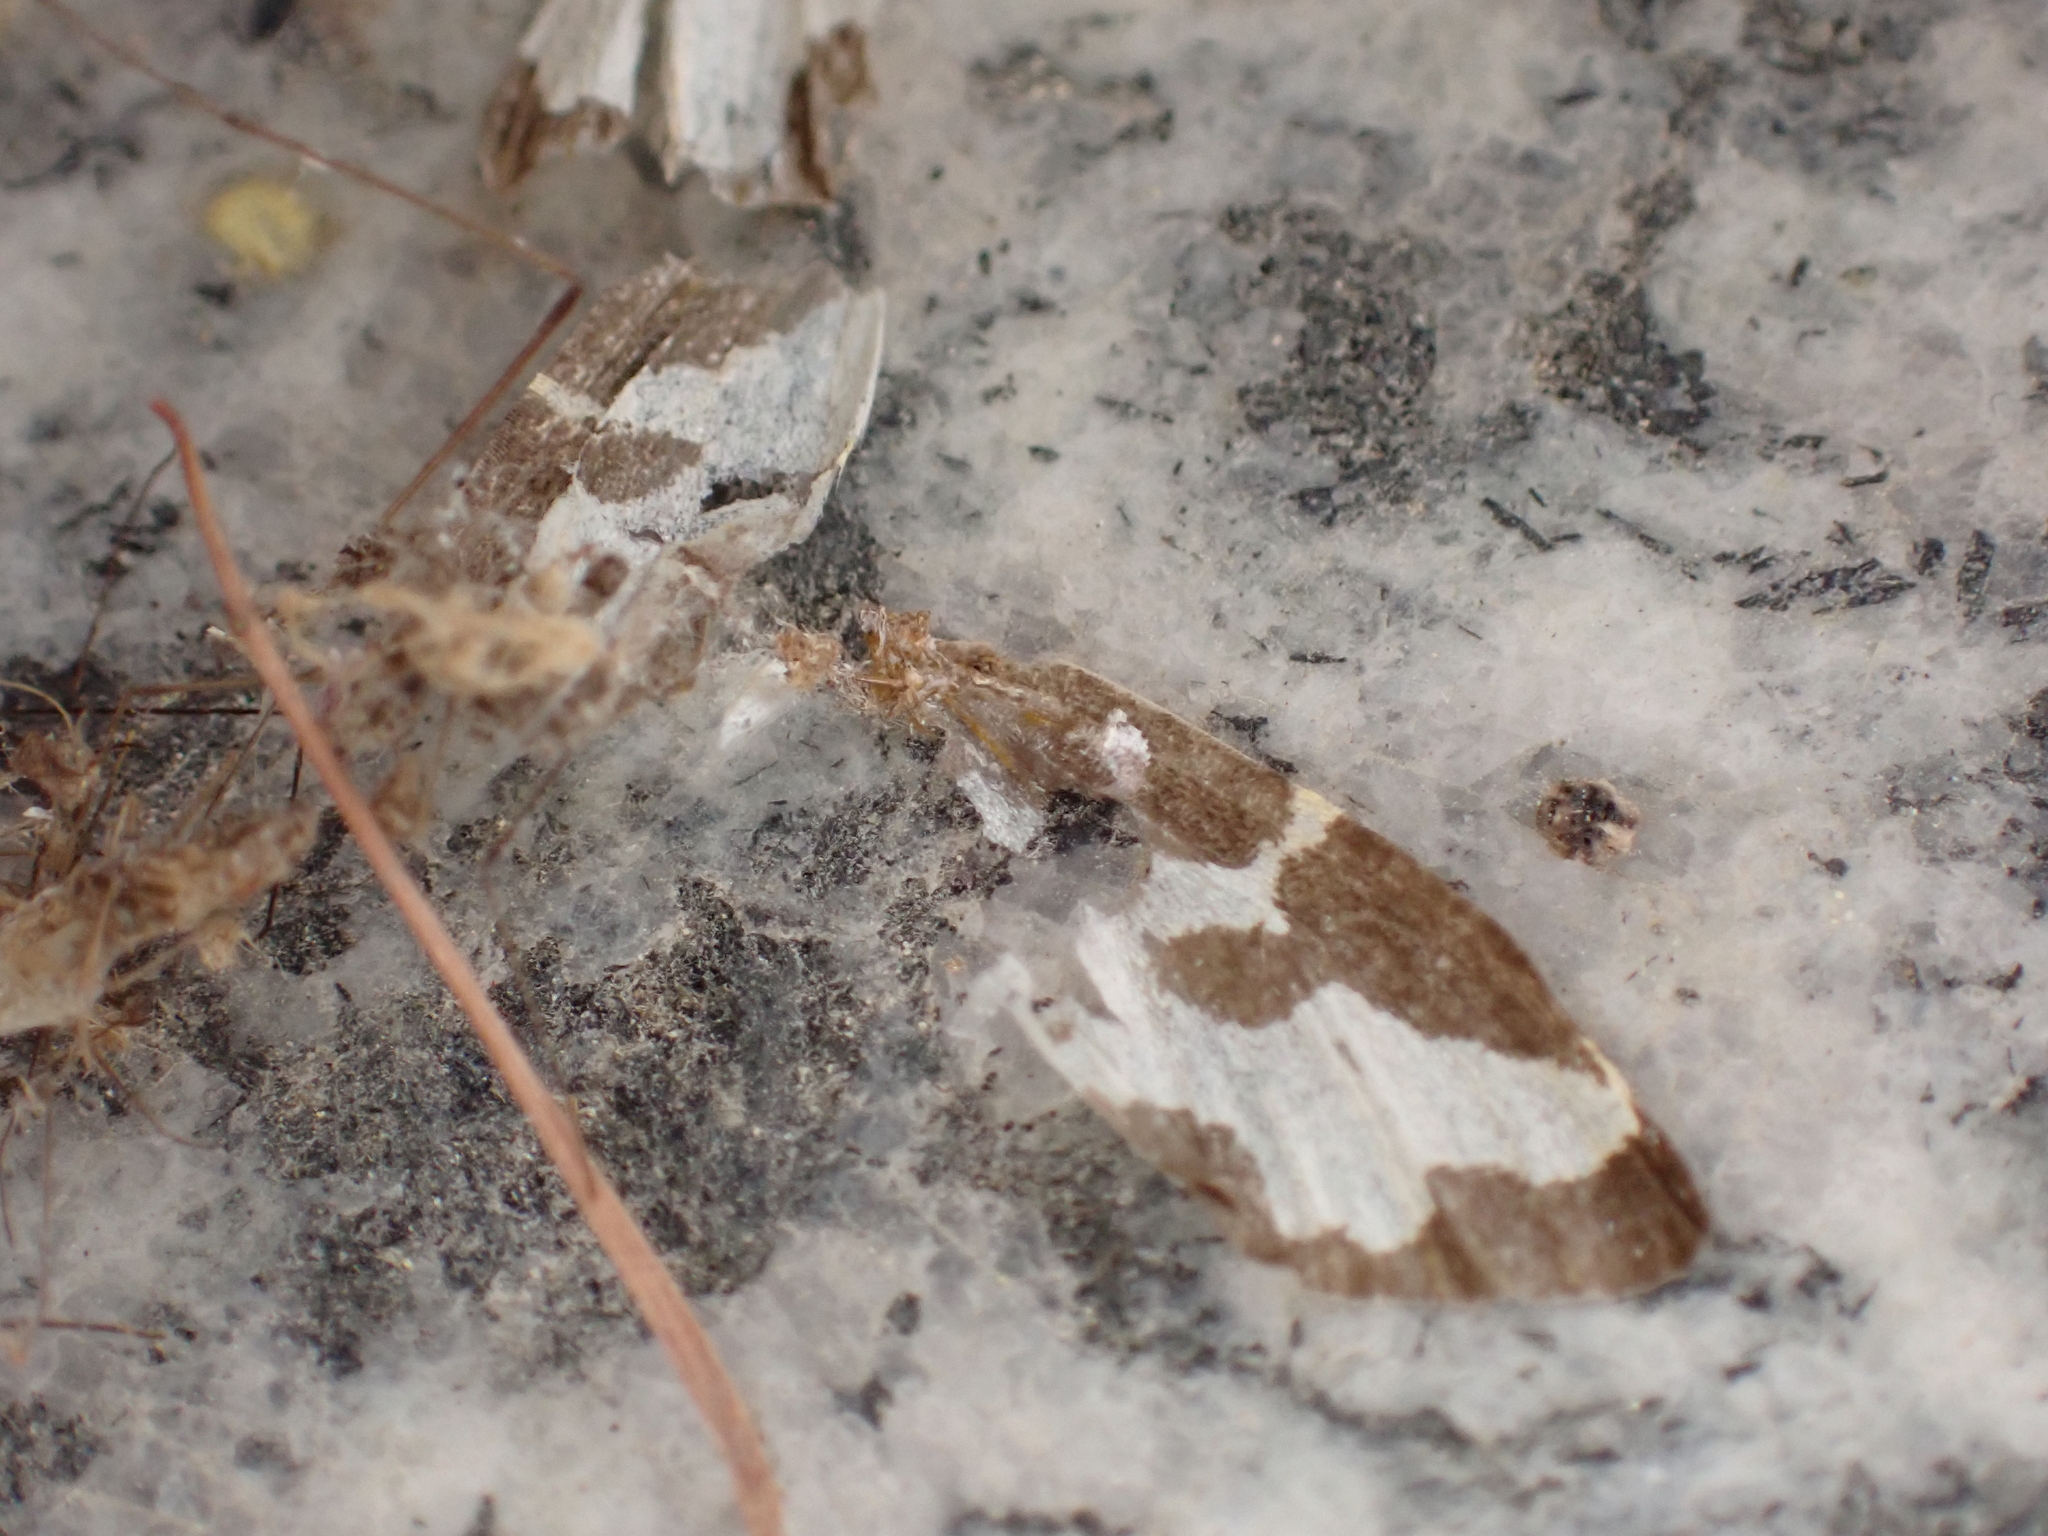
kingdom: Animalia
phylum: Arthropoda
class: Insecta
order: Lepidoptera
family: Geometridae
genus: Lomaspilis
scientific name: Lomaspilis marginata
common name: Clouded border
